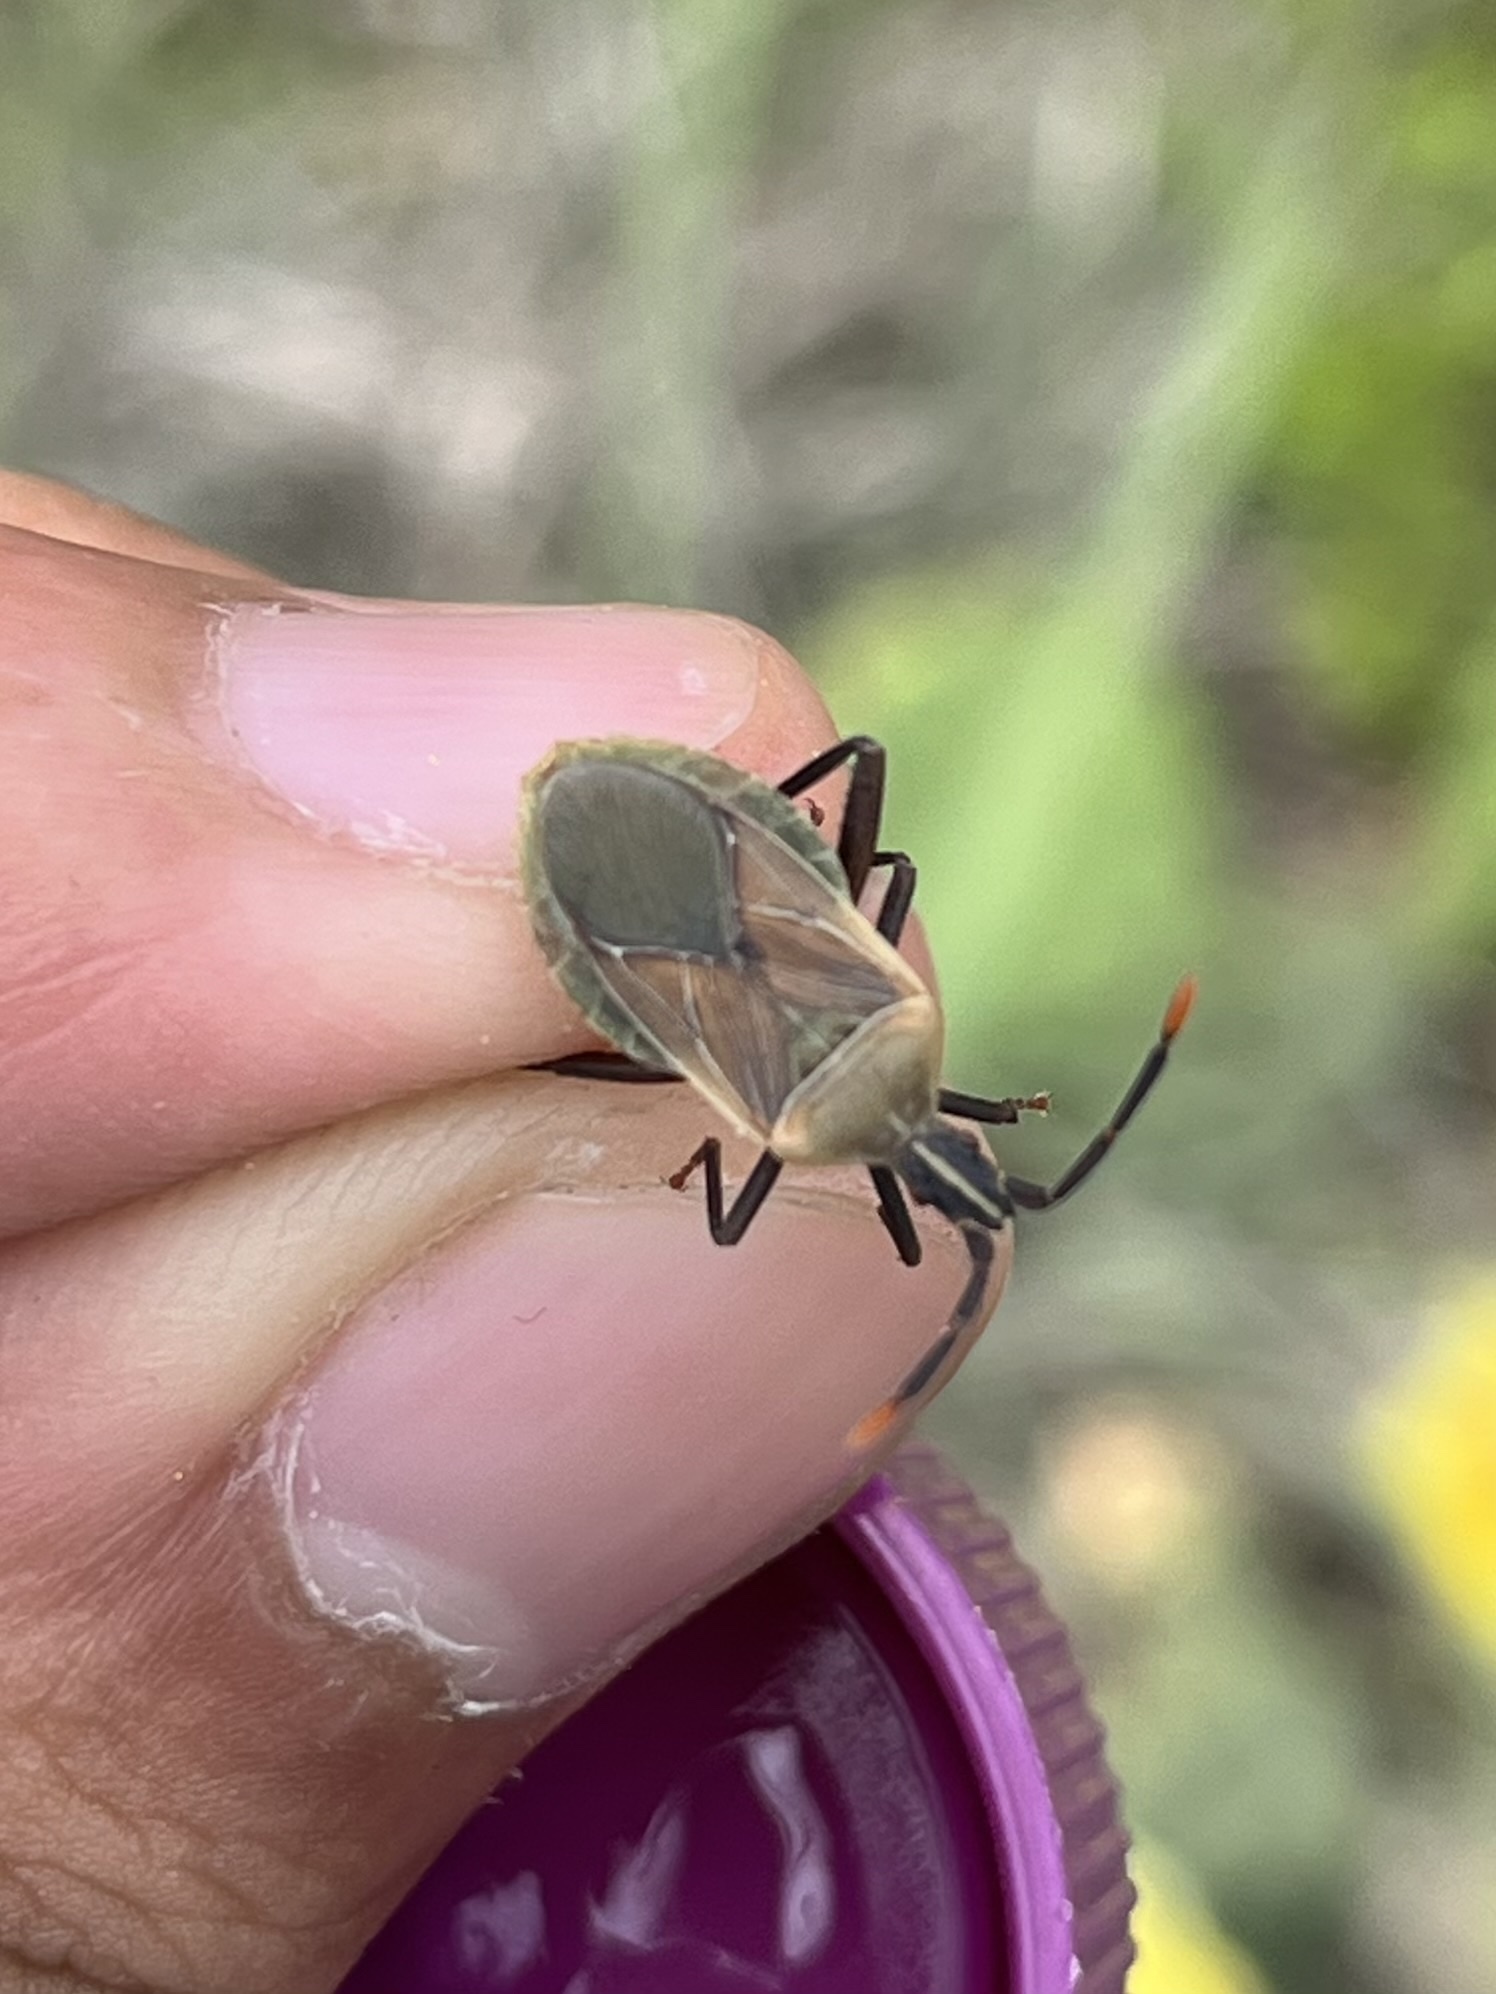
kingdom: Animalia
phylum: Arthropoda
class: Insecta
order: Hemiptera
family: Coreidae
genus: Chelinidea
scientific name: Chelinidea vittiger
